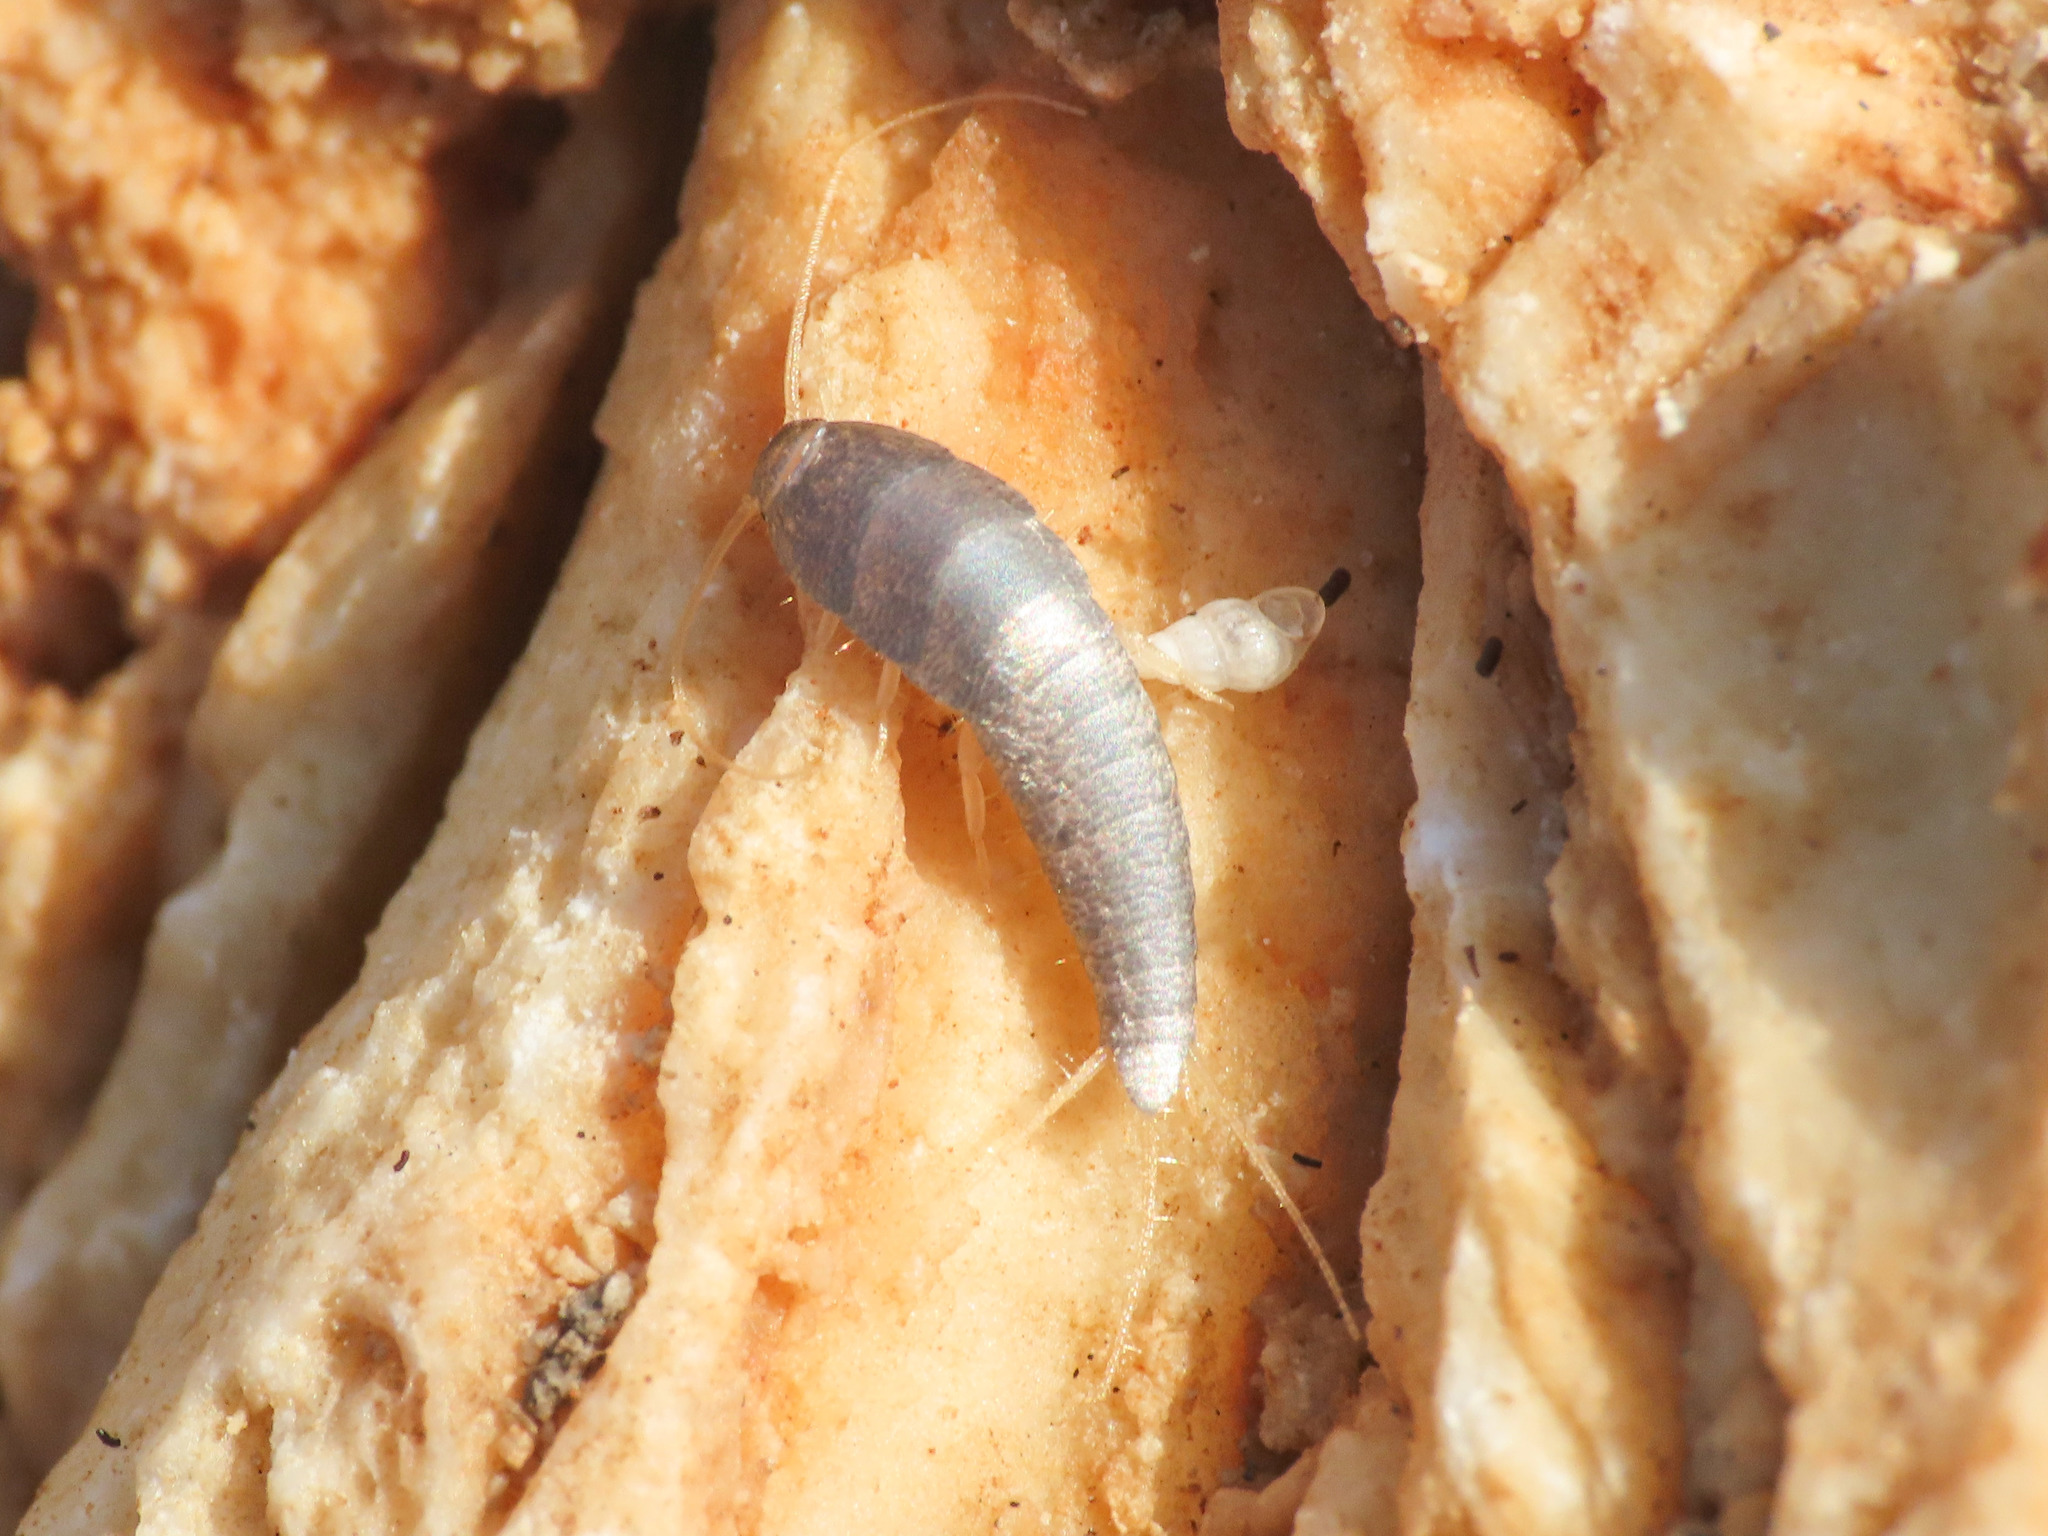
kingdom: Animalia
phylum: Arthropoda
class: Insecta
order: Zygentoma
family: Lepismatidae
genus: Lepisma
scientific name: Lepisma saccharinum
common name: Silverfish
